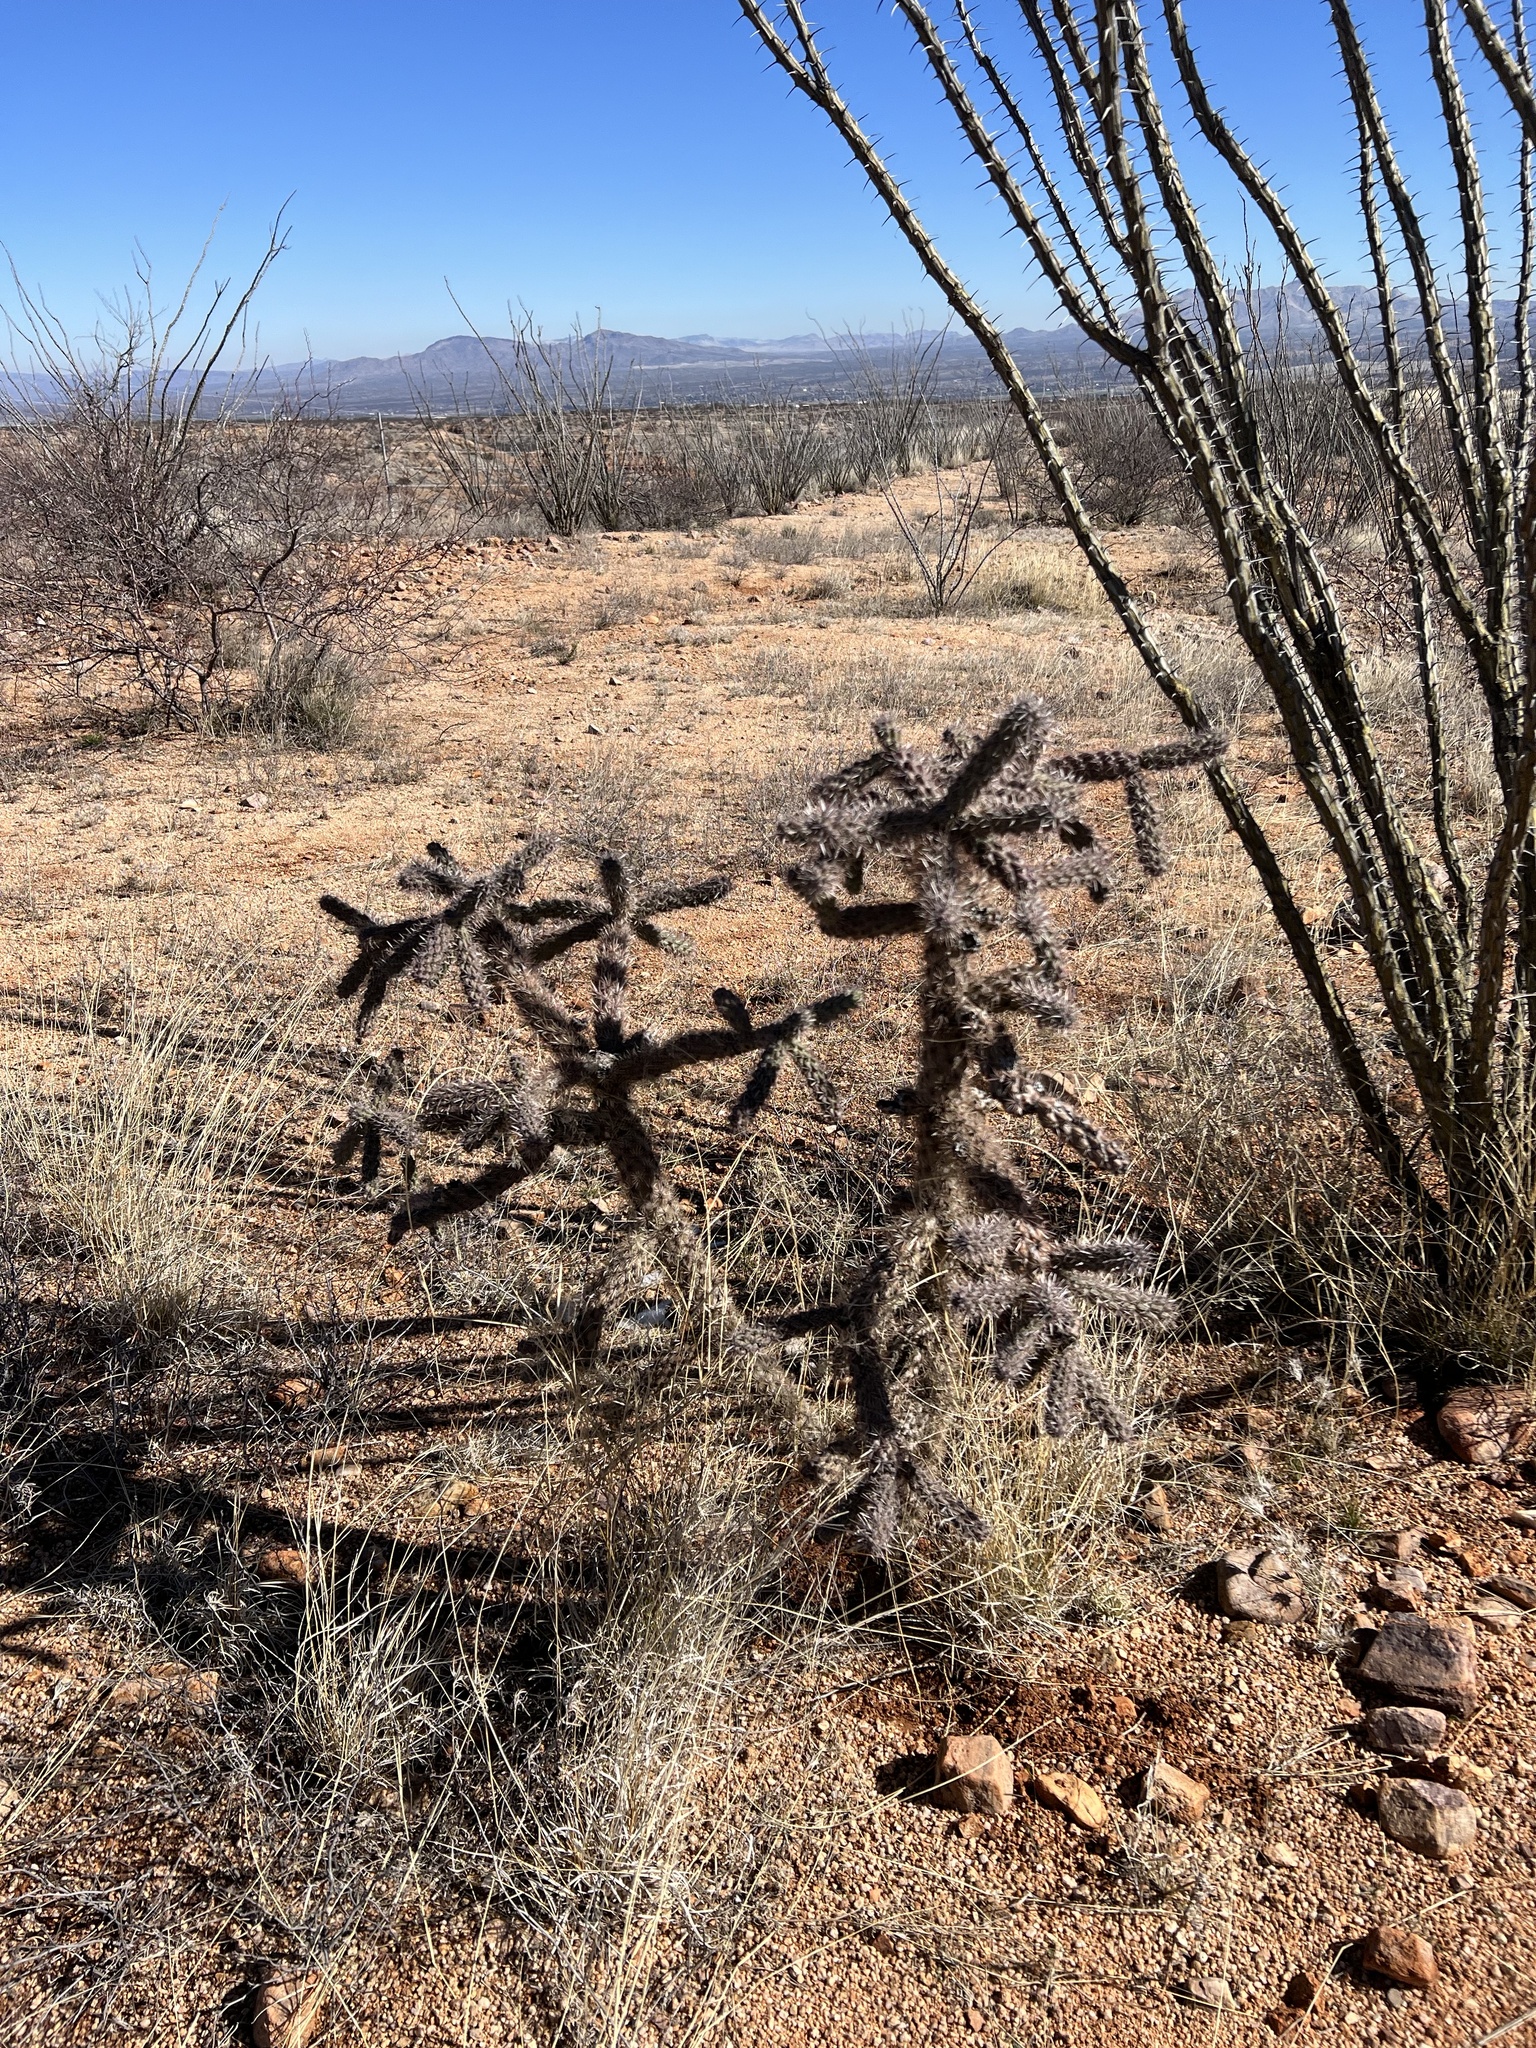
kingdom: Plantae
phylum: Tracheophyta
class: Magnoliopsida
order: Caryophyllales
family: Cactaceae
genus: Cylindropuntia
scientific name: Cylindropuntia imbricata
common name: Candelabrum cactus
